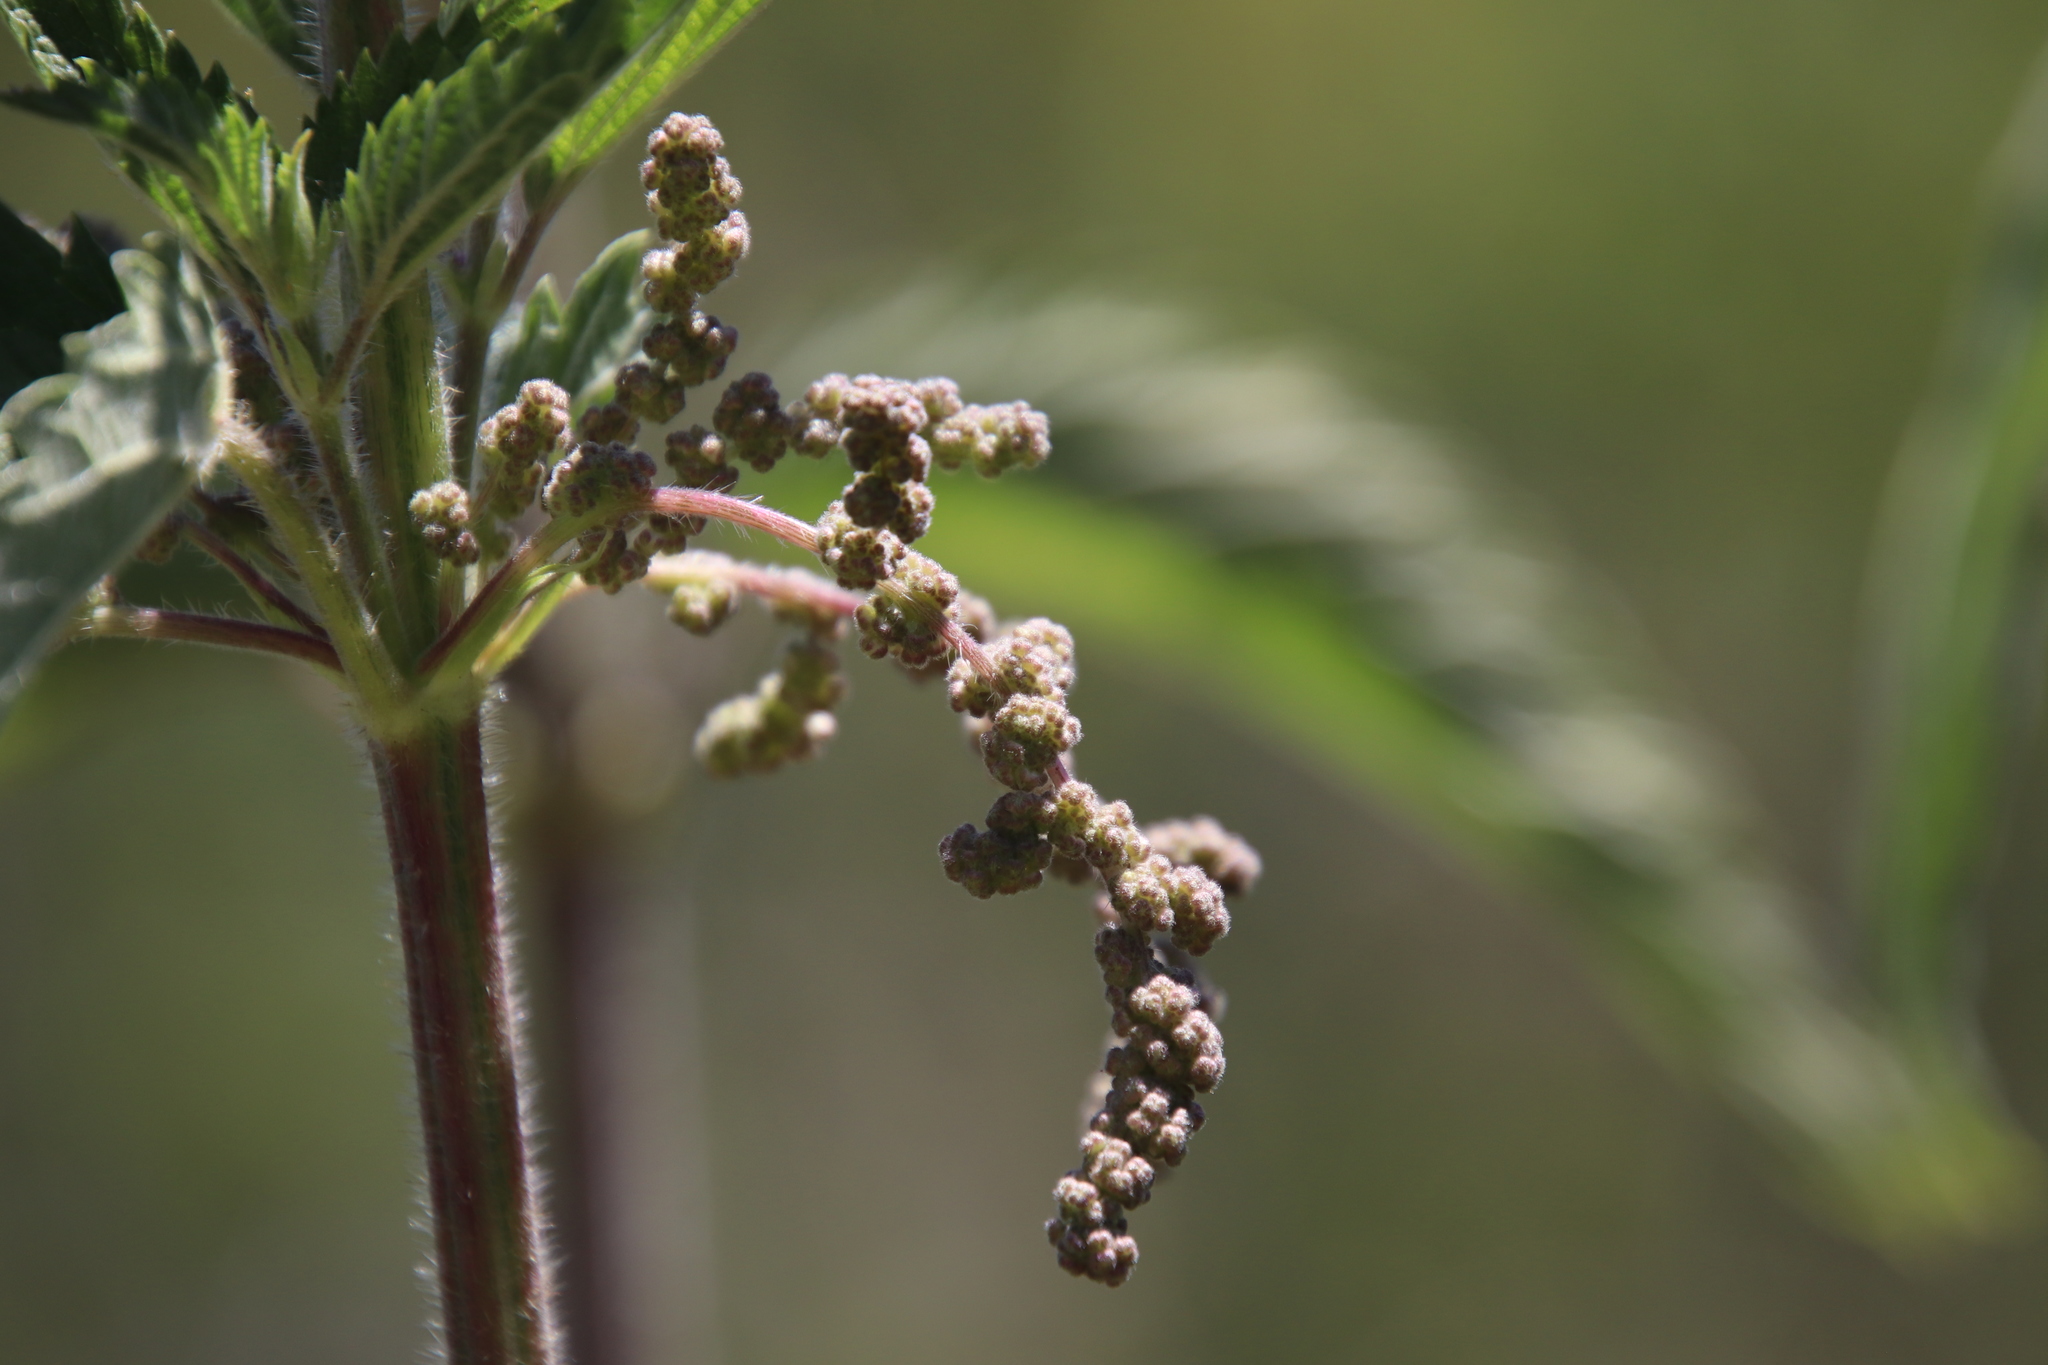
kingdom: Plantae
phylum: Tracheophyta
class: Magnoliopsida
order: Rosales
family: Urticaceae
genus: Urtica
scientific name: Urtica gracilis
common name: Slender stinging nettle
